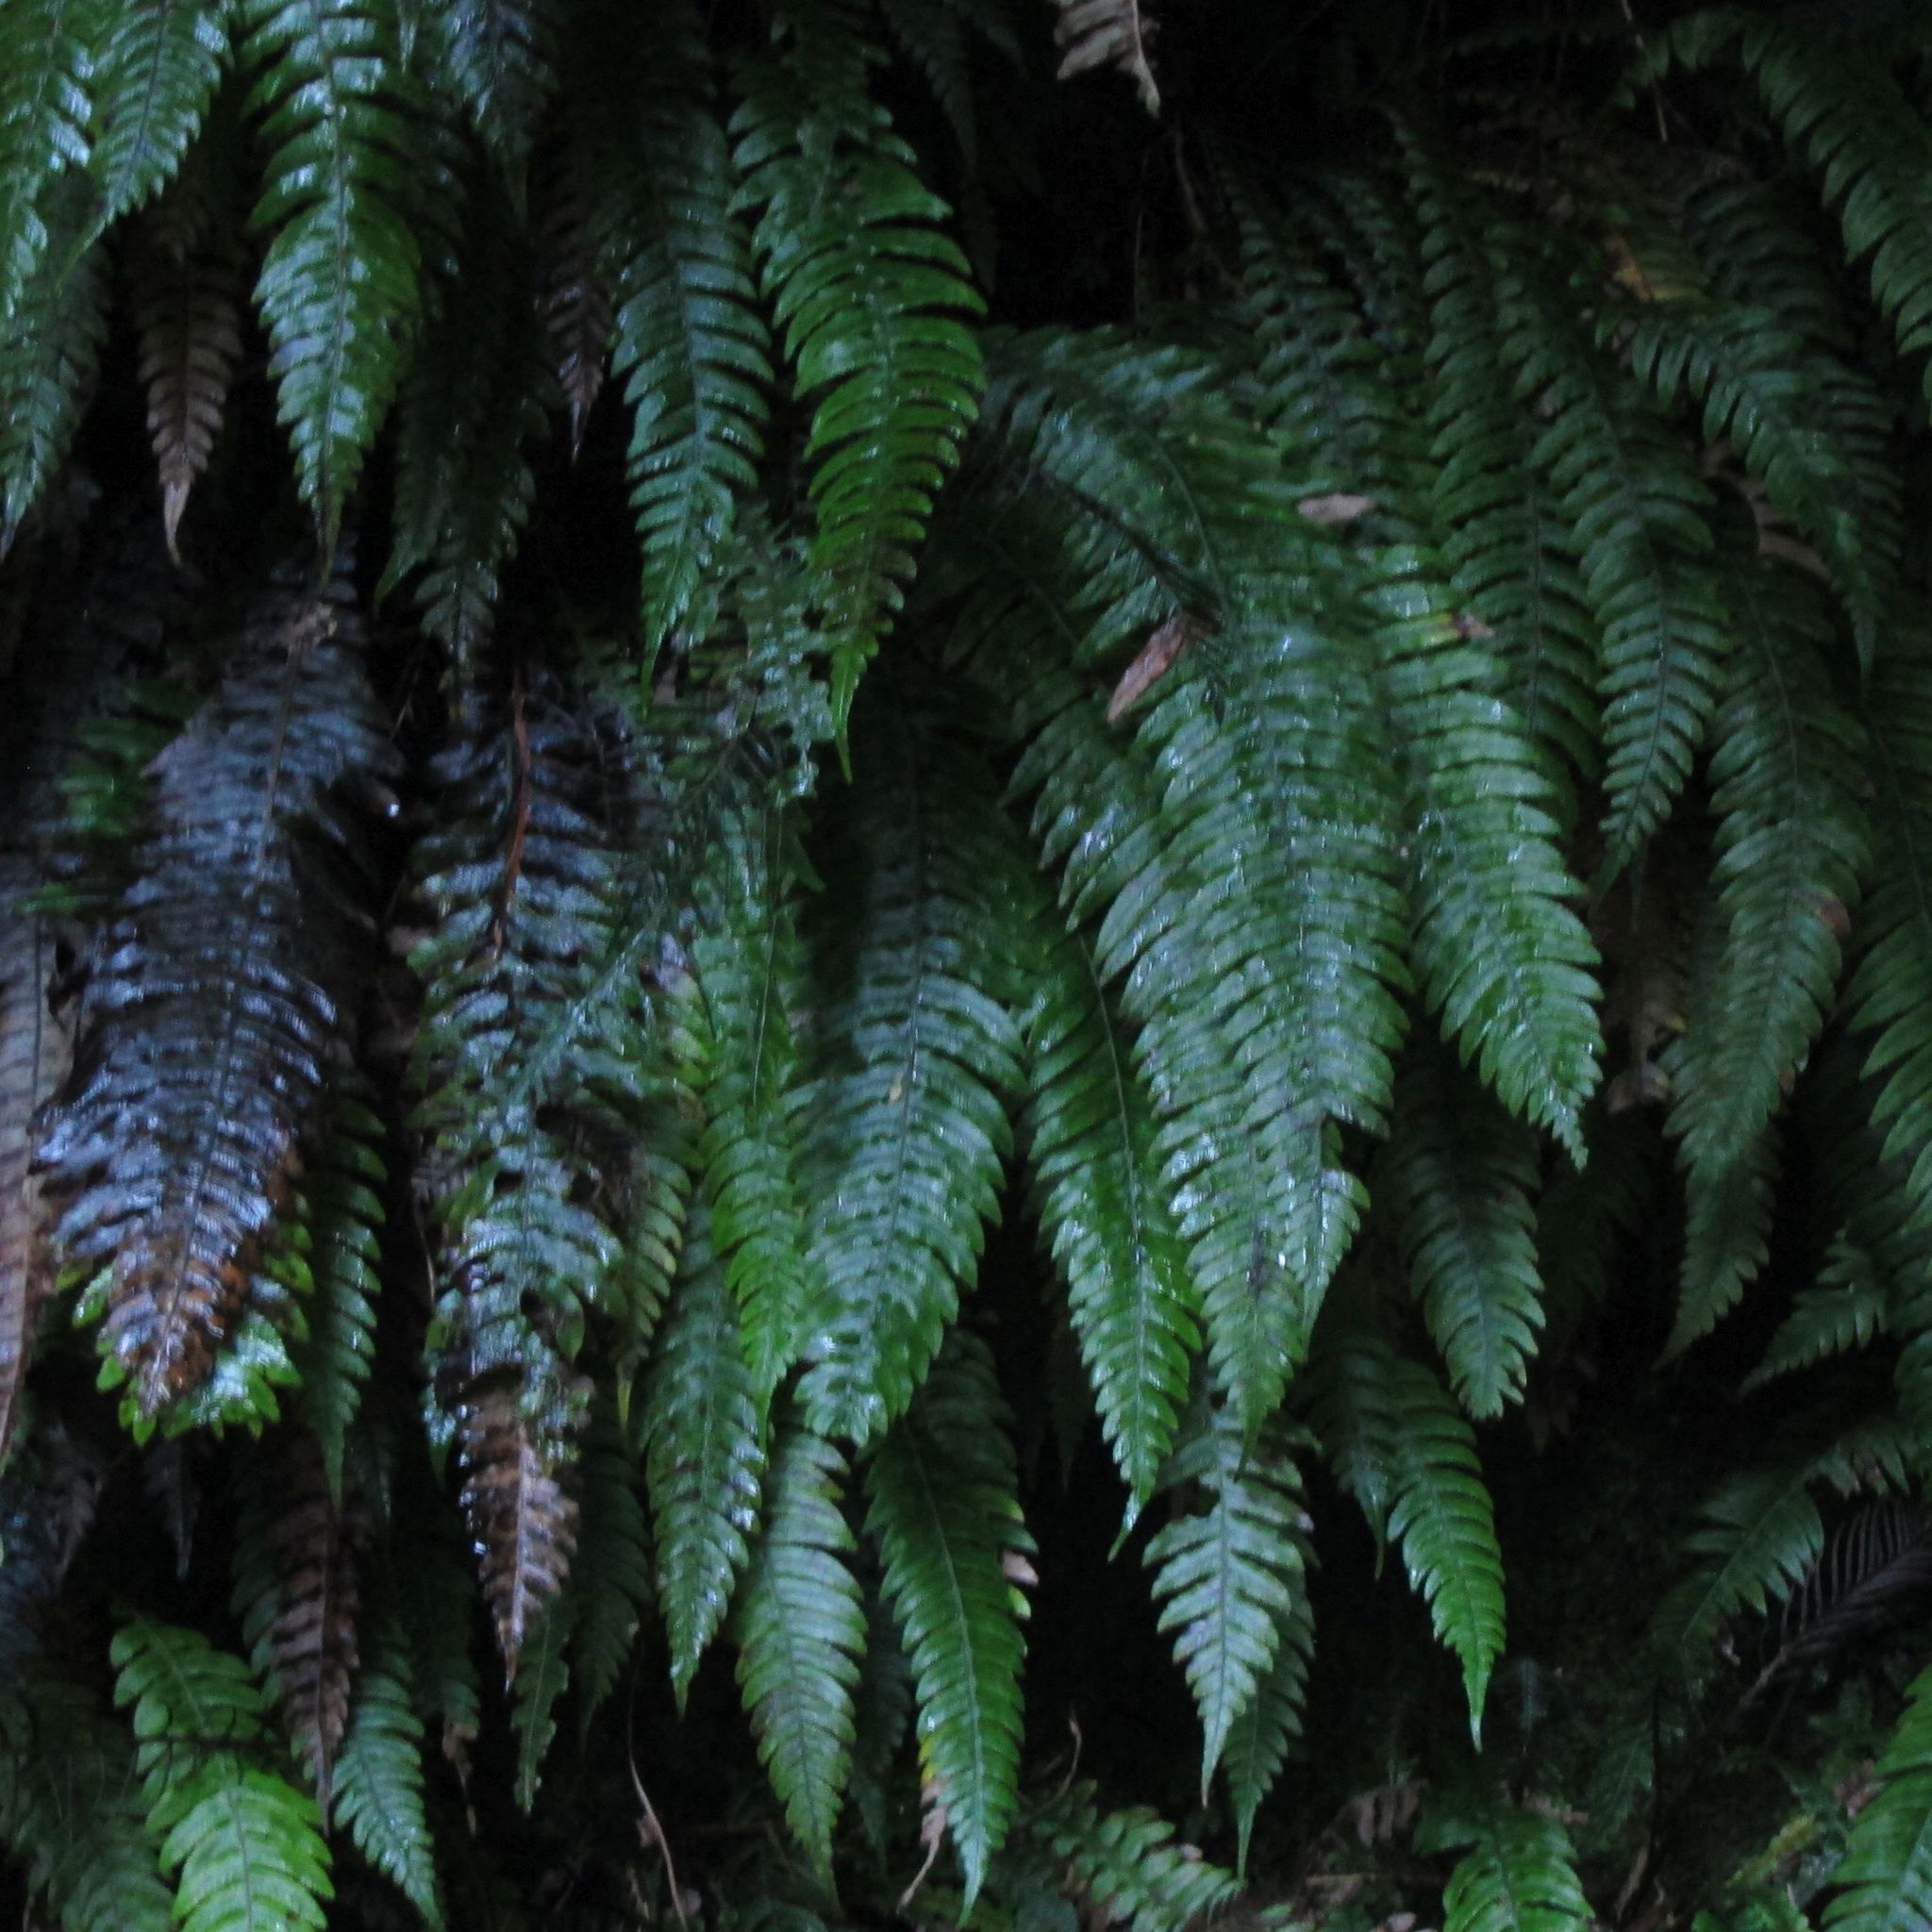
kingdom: Plantae
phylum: Tracheophyta
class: Polypodiopsida
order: Polypodiales
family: Blechnaceae
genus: Austroblechnum
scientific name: Austroblechnum lanceolatum
